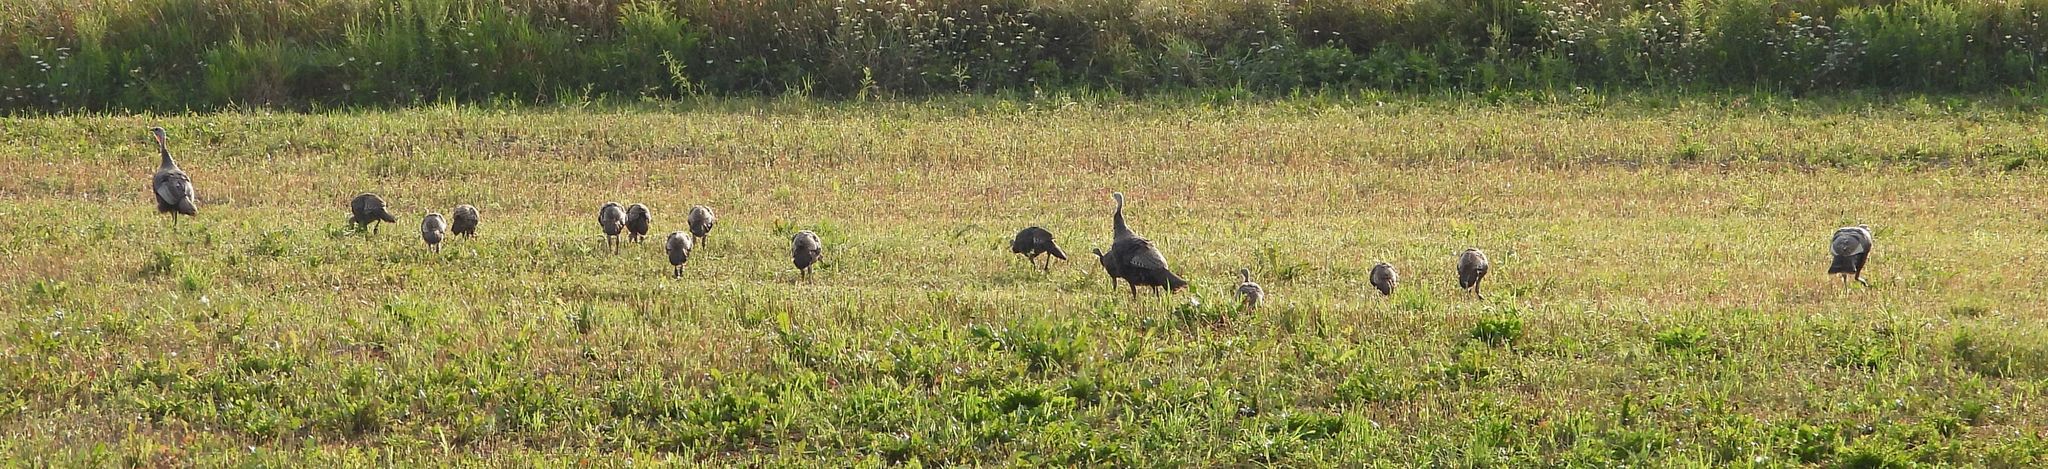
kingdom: Animalia
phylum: Chordata
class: Aves
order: Galliformes
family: Phasianidae
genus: Meleagris
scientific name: Meleagris gallopavo
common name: Wild turkey
